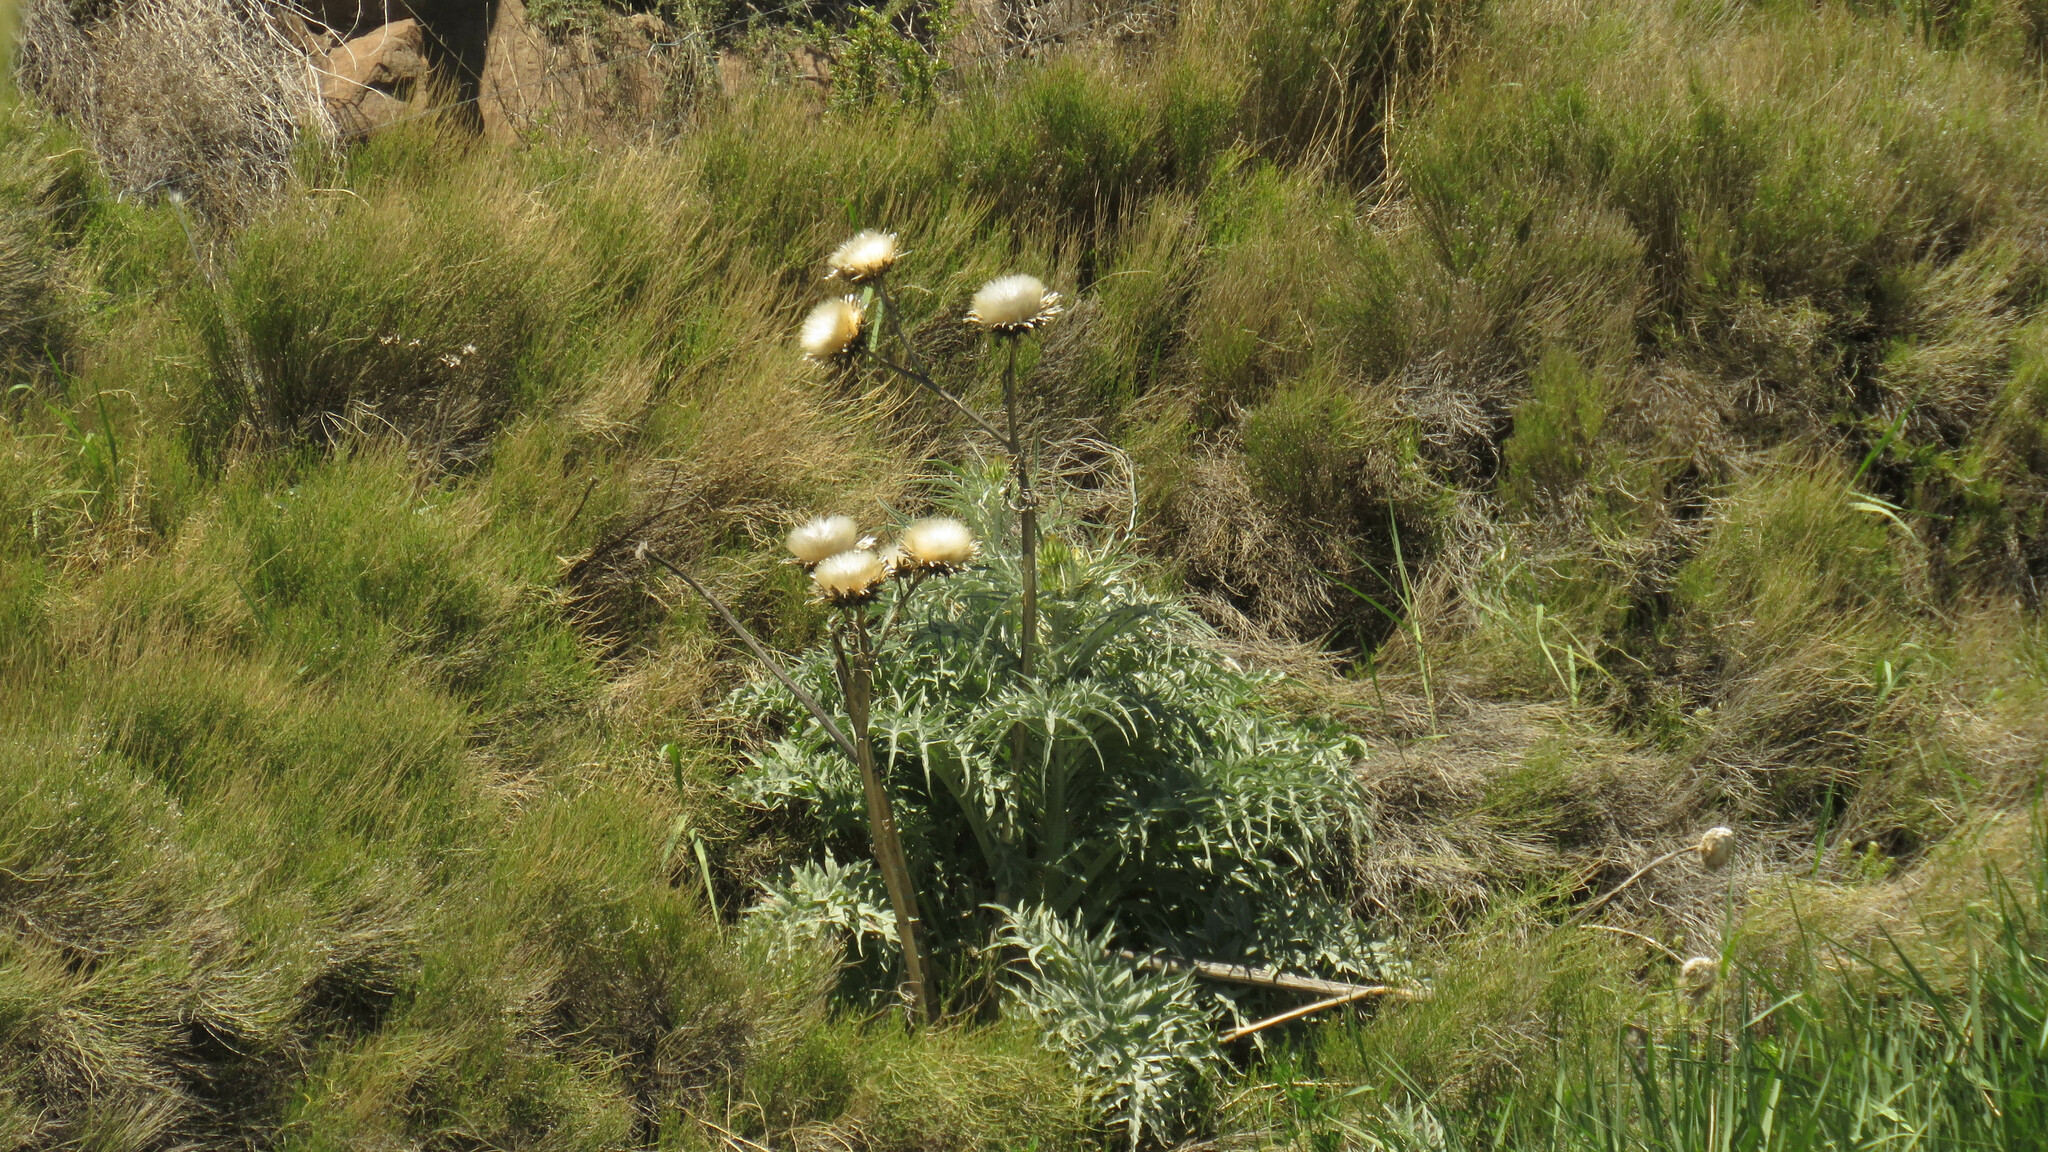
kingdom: Plantae
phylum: Tracheophyta
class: Magnoliopsida
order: Asterales
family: Asteraceae
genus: Cynara
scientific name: Cynara cardunculus
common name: Globe artichoke
